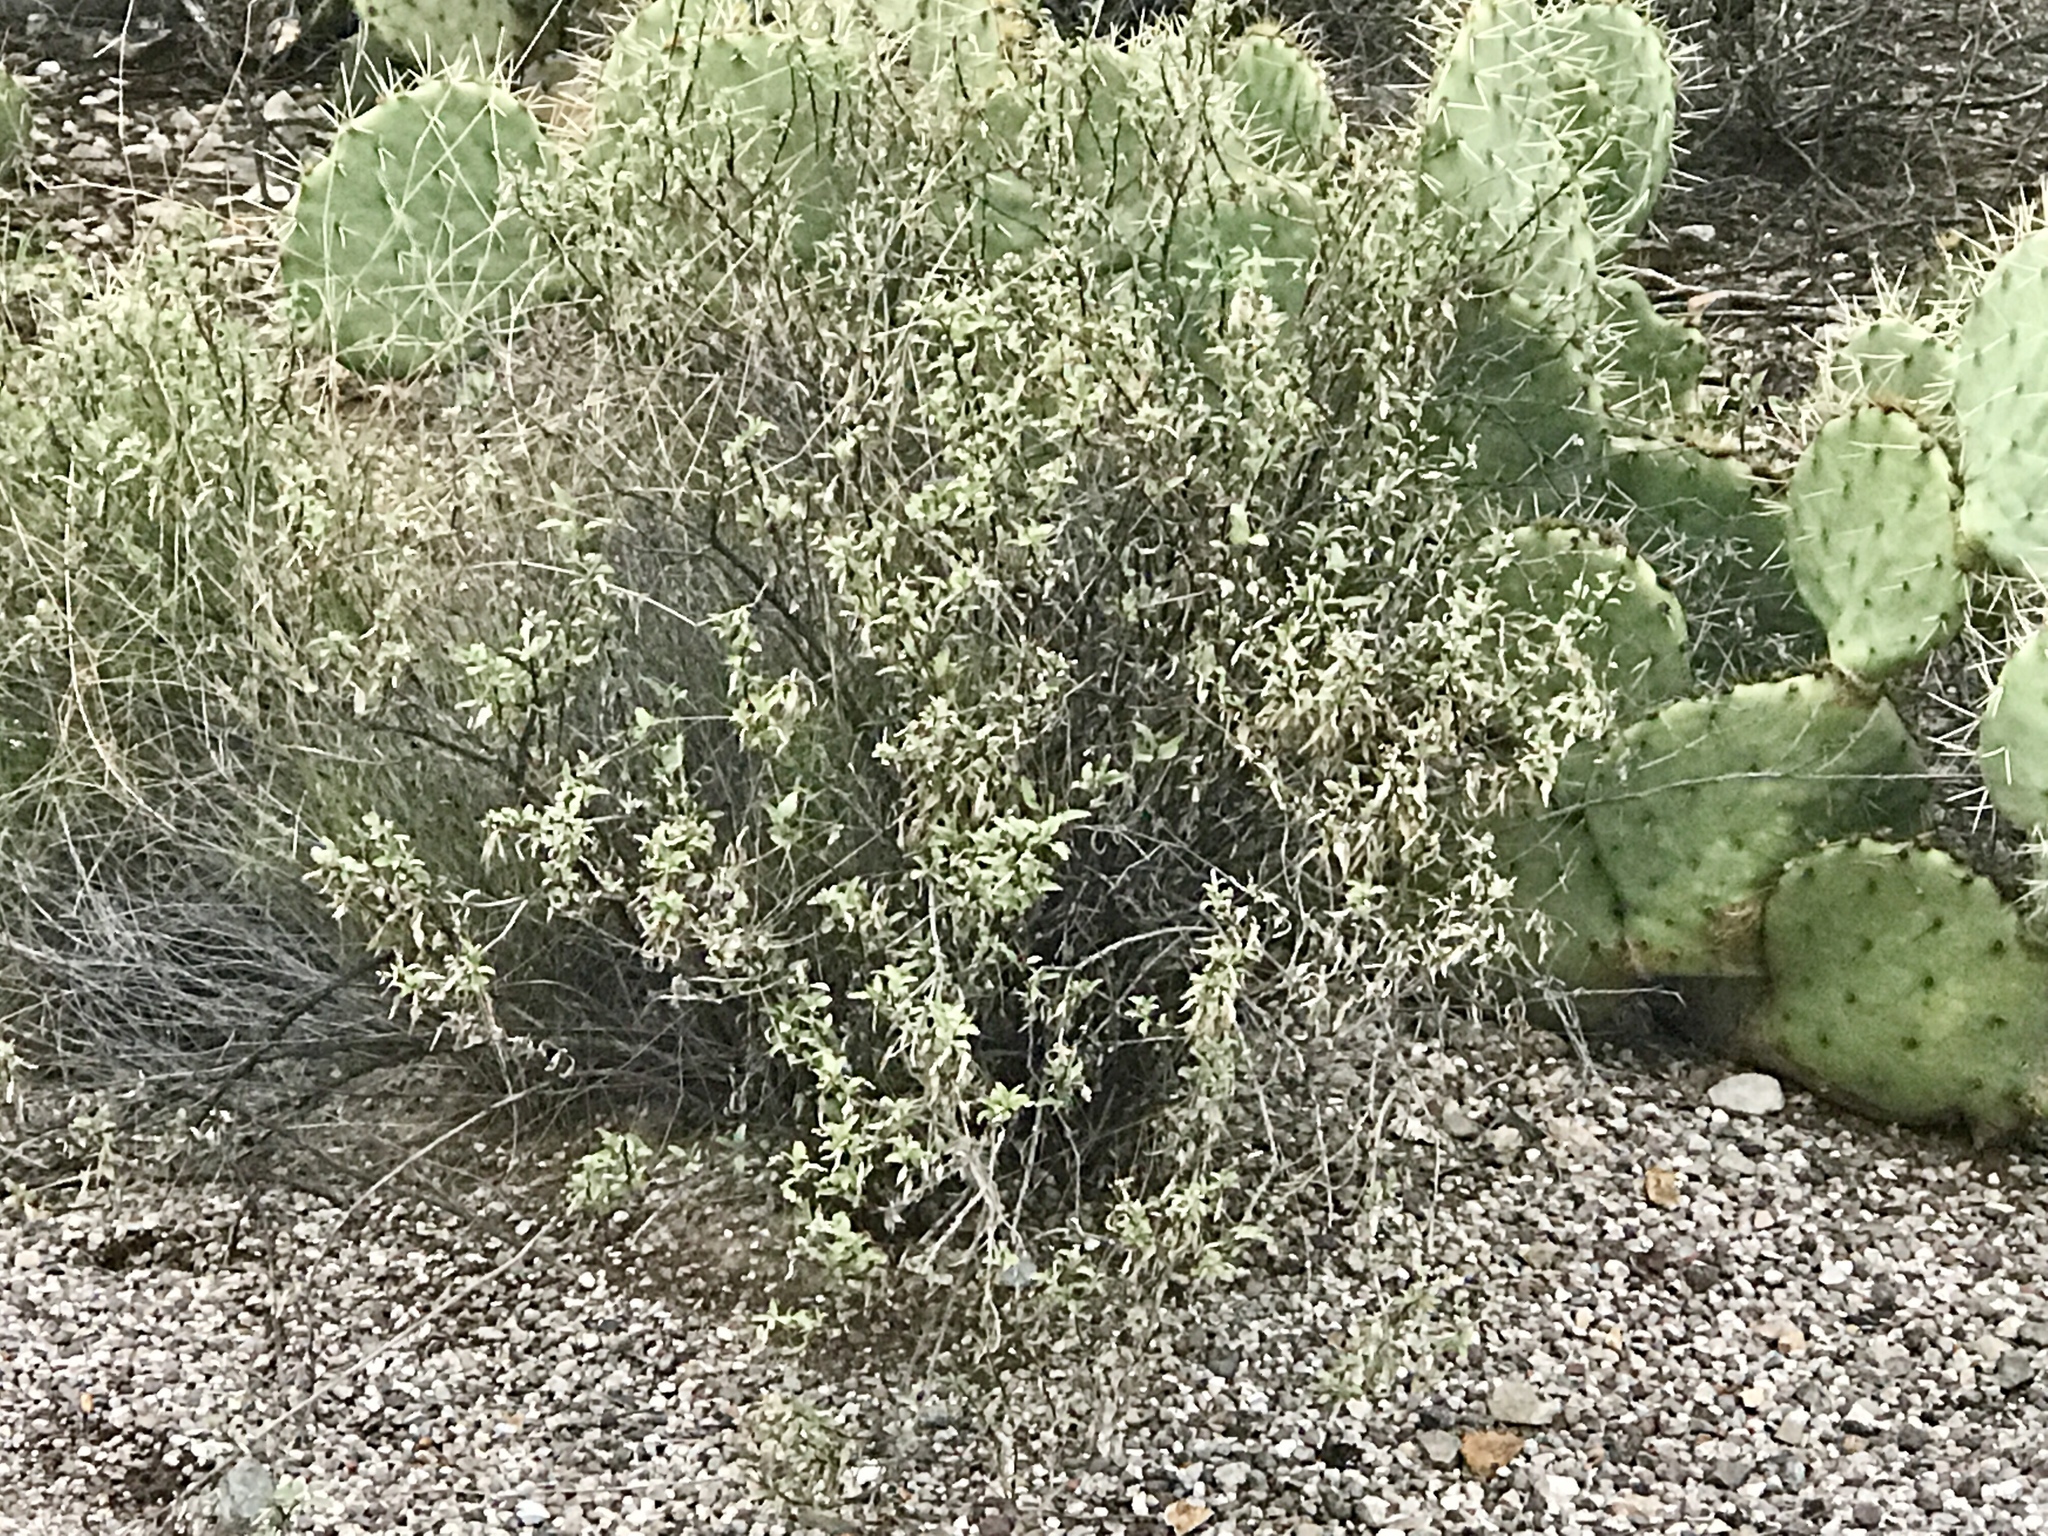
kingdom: Plantae
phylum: Tracheophyta
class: Magnoliopsida
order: Asterales
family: Asteraceae
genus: Ambrosia
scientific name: Ambrosia deltoidea
